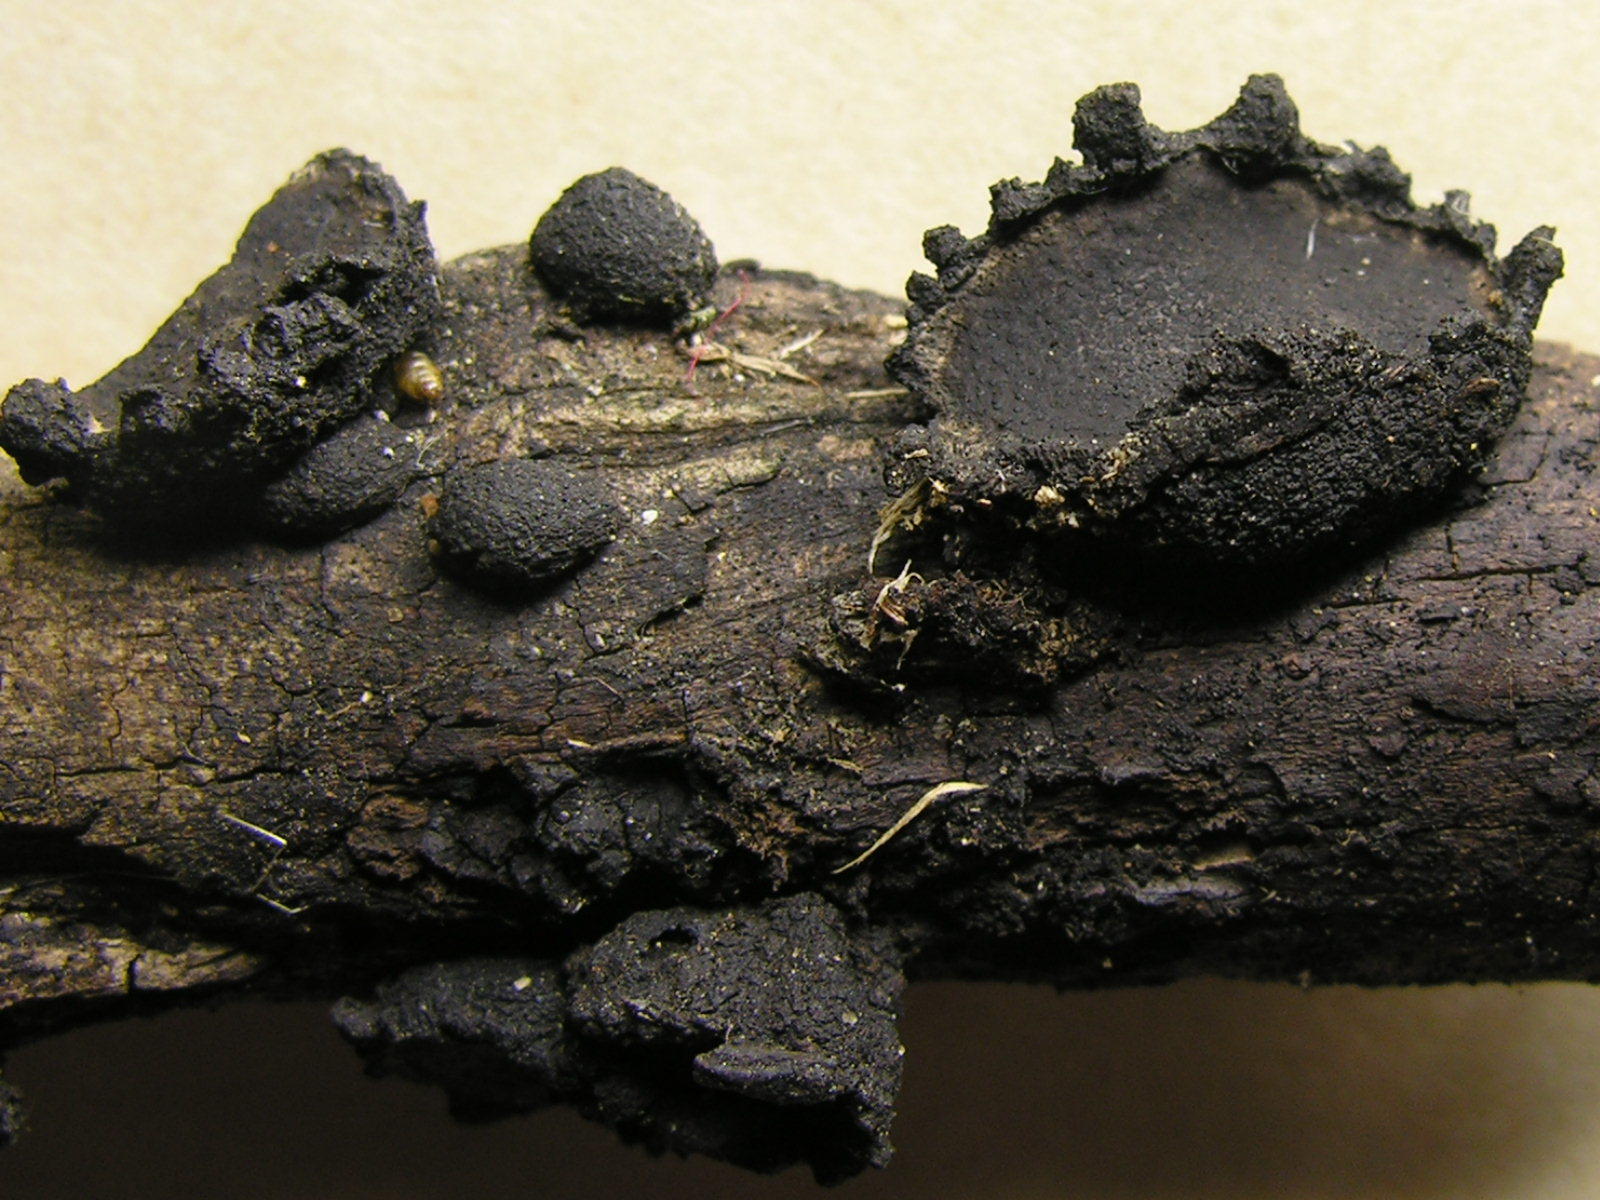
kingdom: Fungi
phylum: Ascomycota
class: Sordariomycetes
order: Xylariales
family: Graphostromataceae
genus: Biscogniauxia
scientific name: Biscogniauxia repanda
